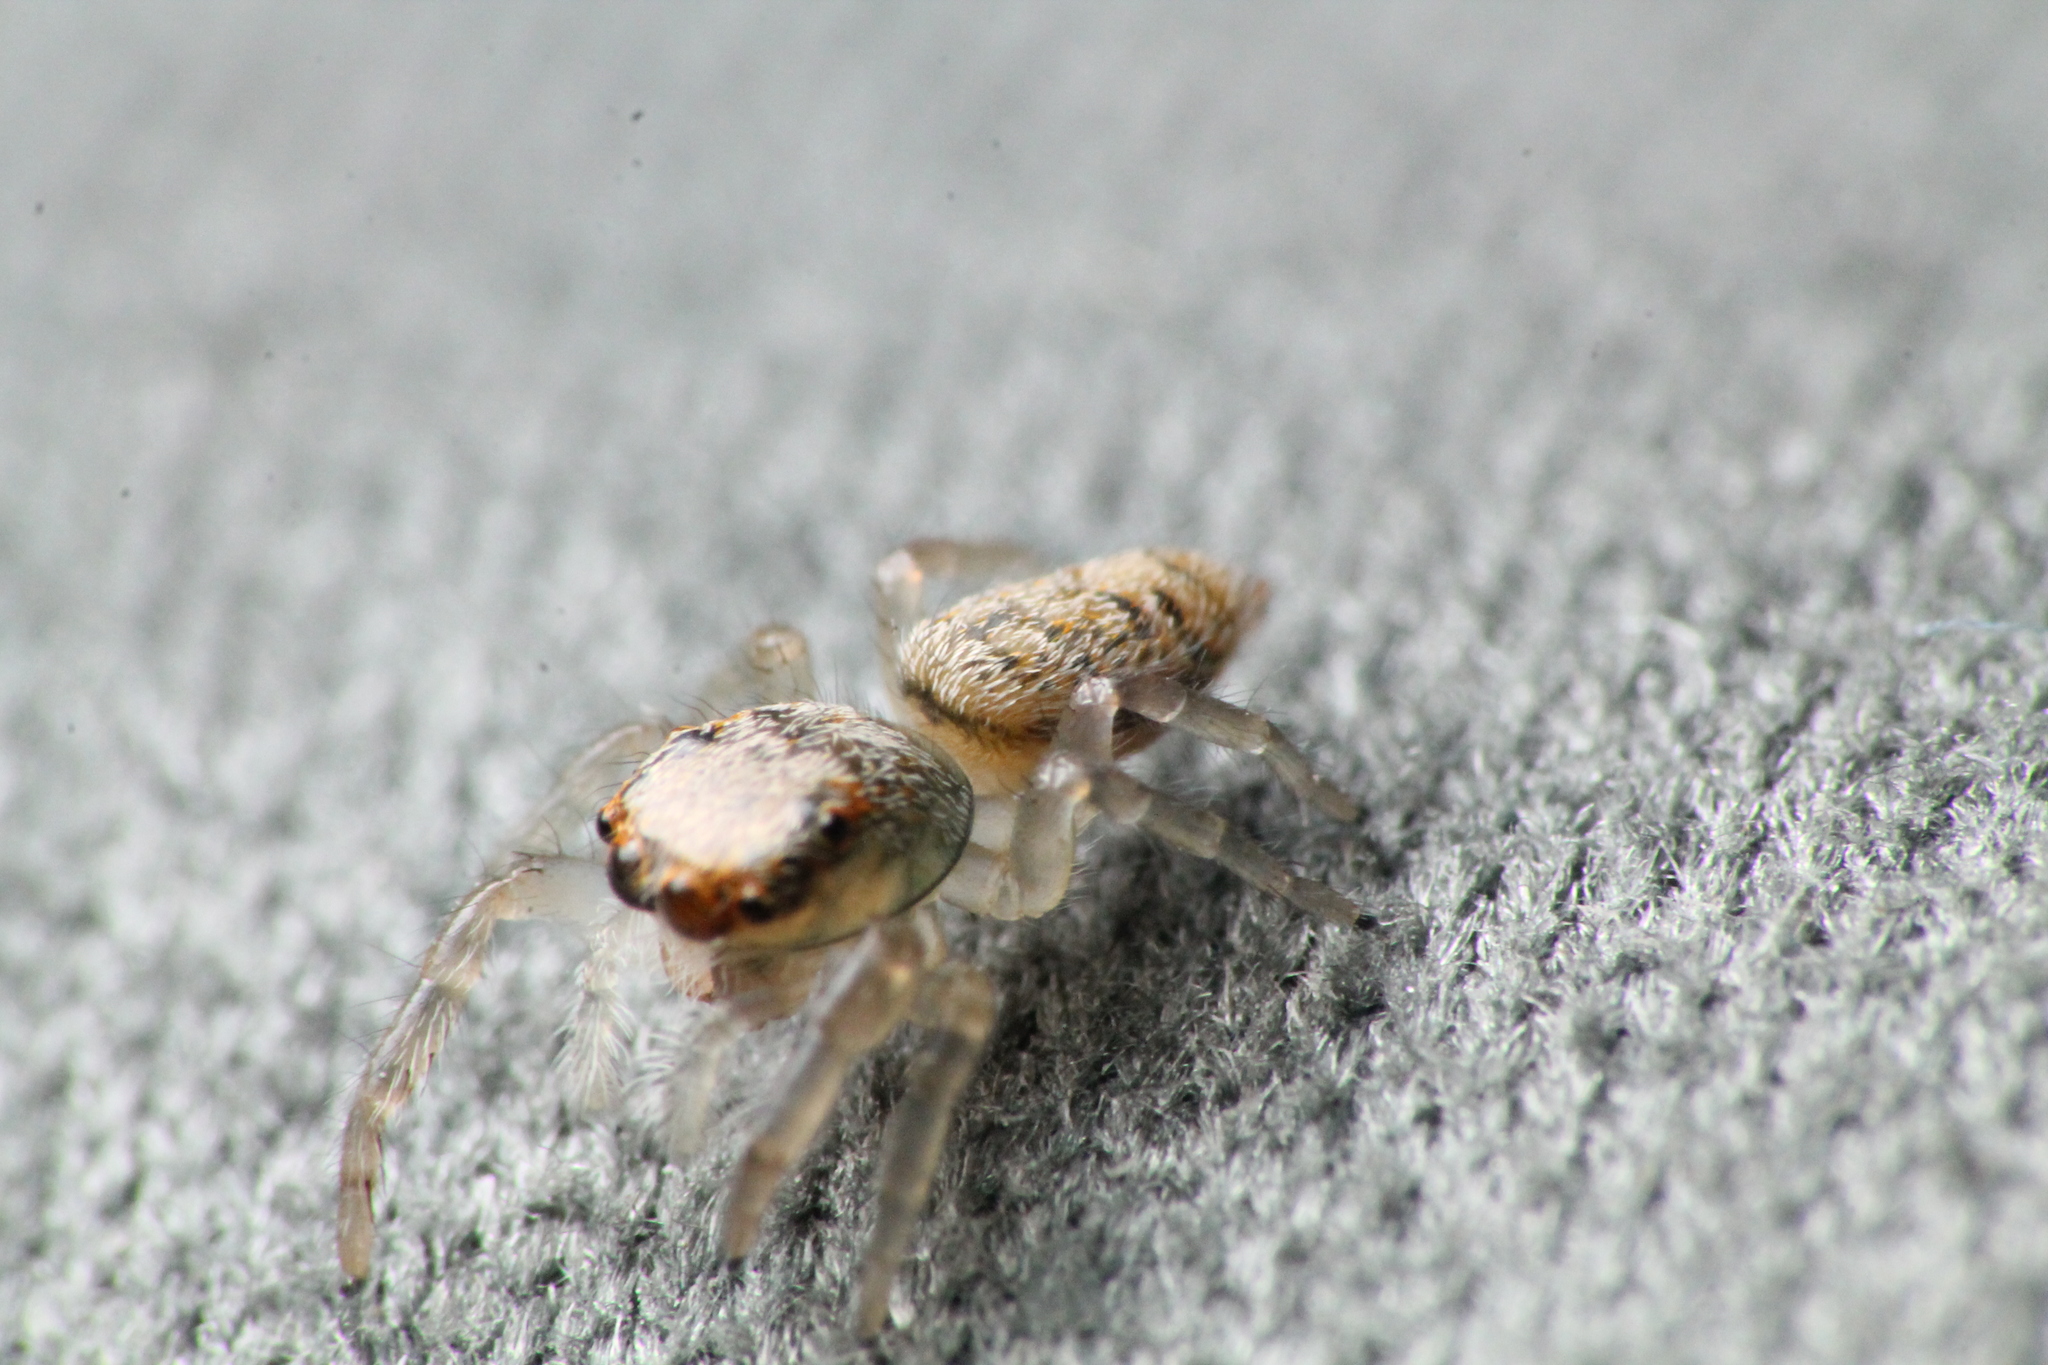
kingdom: Animalia
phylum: Arthropoda
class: Arachnida
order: Araneae
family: Salticidae
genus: Opisthoncus
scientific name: Opisthoncus polyphemus
